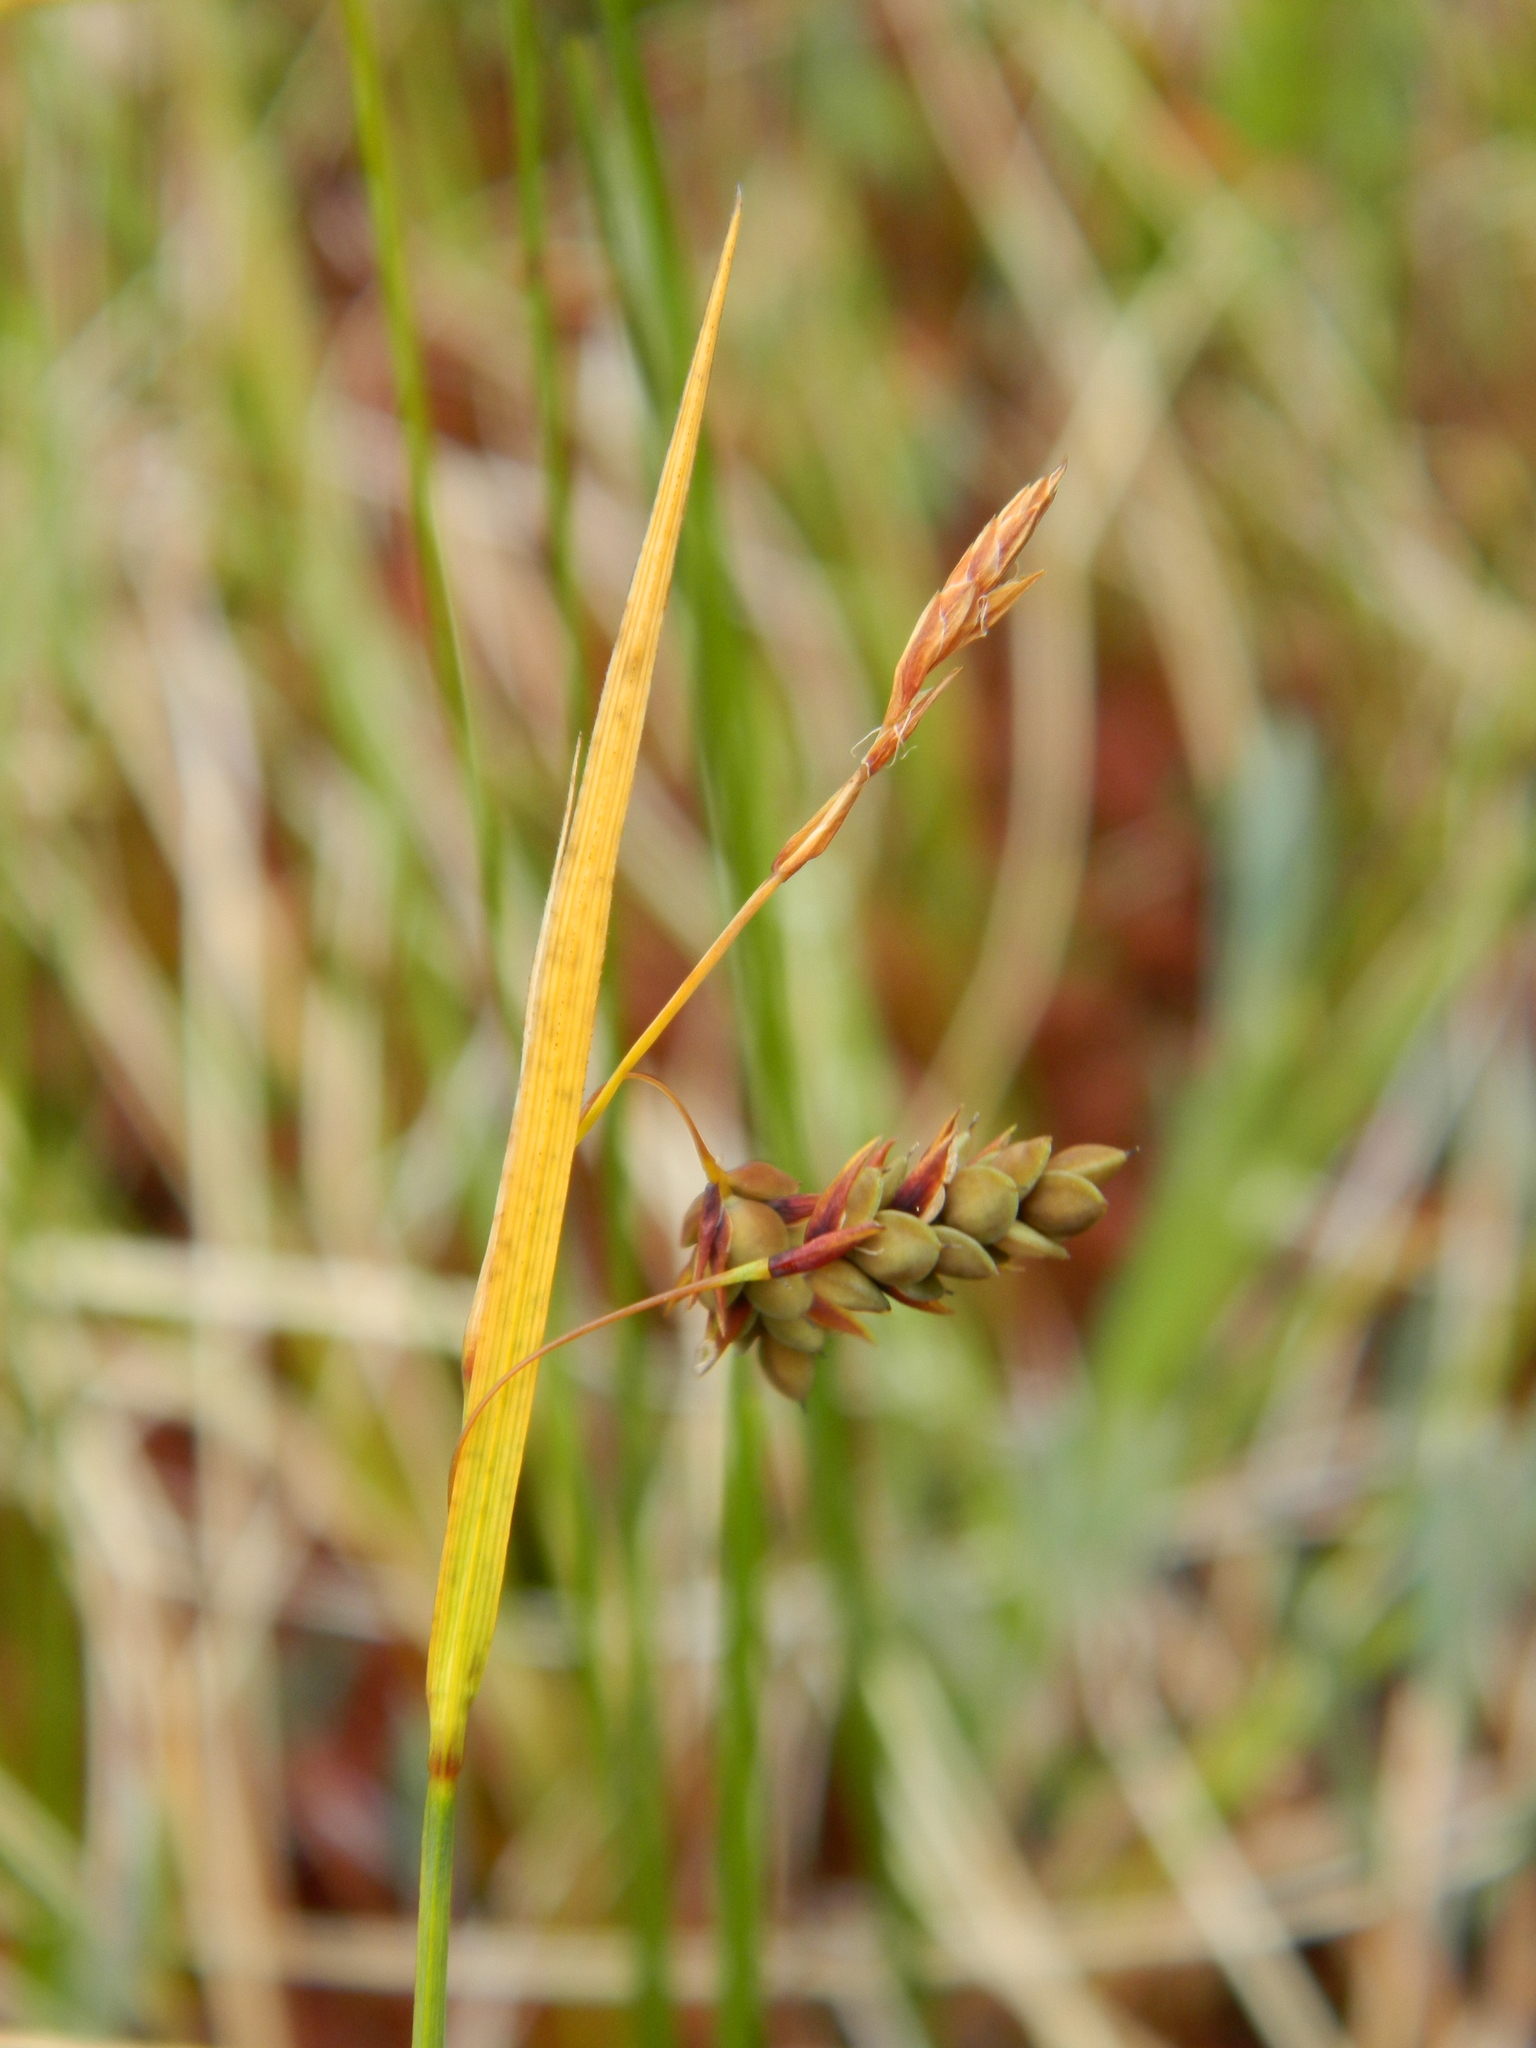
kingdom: Plantae
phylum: Tracheophyta
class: Liliopsida
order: Poales
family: Cyperaceae
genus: Carex
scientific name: Carex magellanica
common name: Bog sedge
